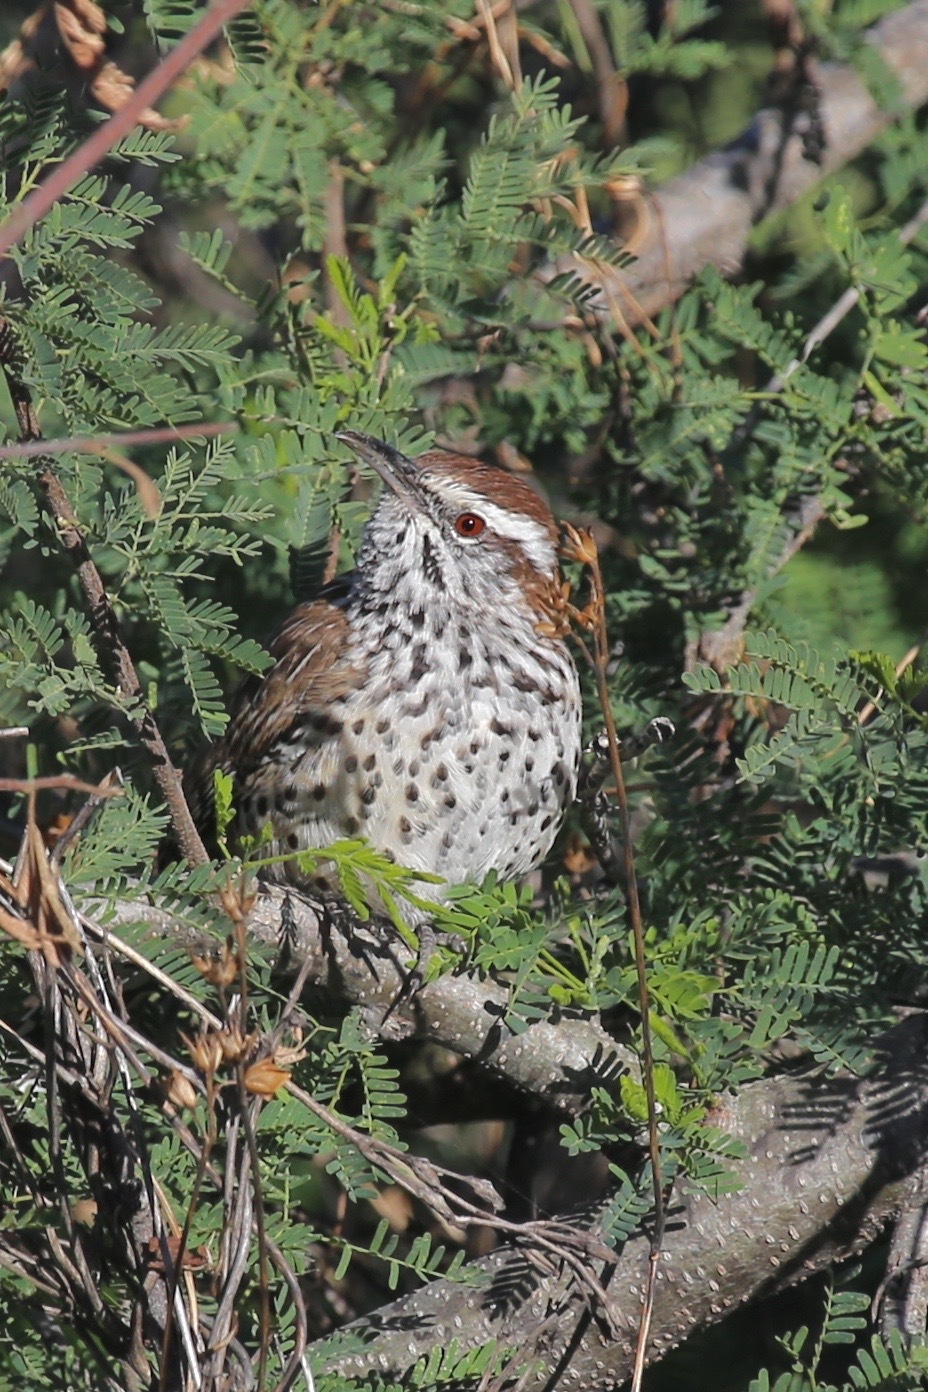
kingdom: Animalia
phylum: Chordata
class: Aves
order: Passeriformes
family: Troglodytidae
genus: Campylorhynchus
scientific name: Campylorhynchus brunneicapillus
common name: Cactus wren
